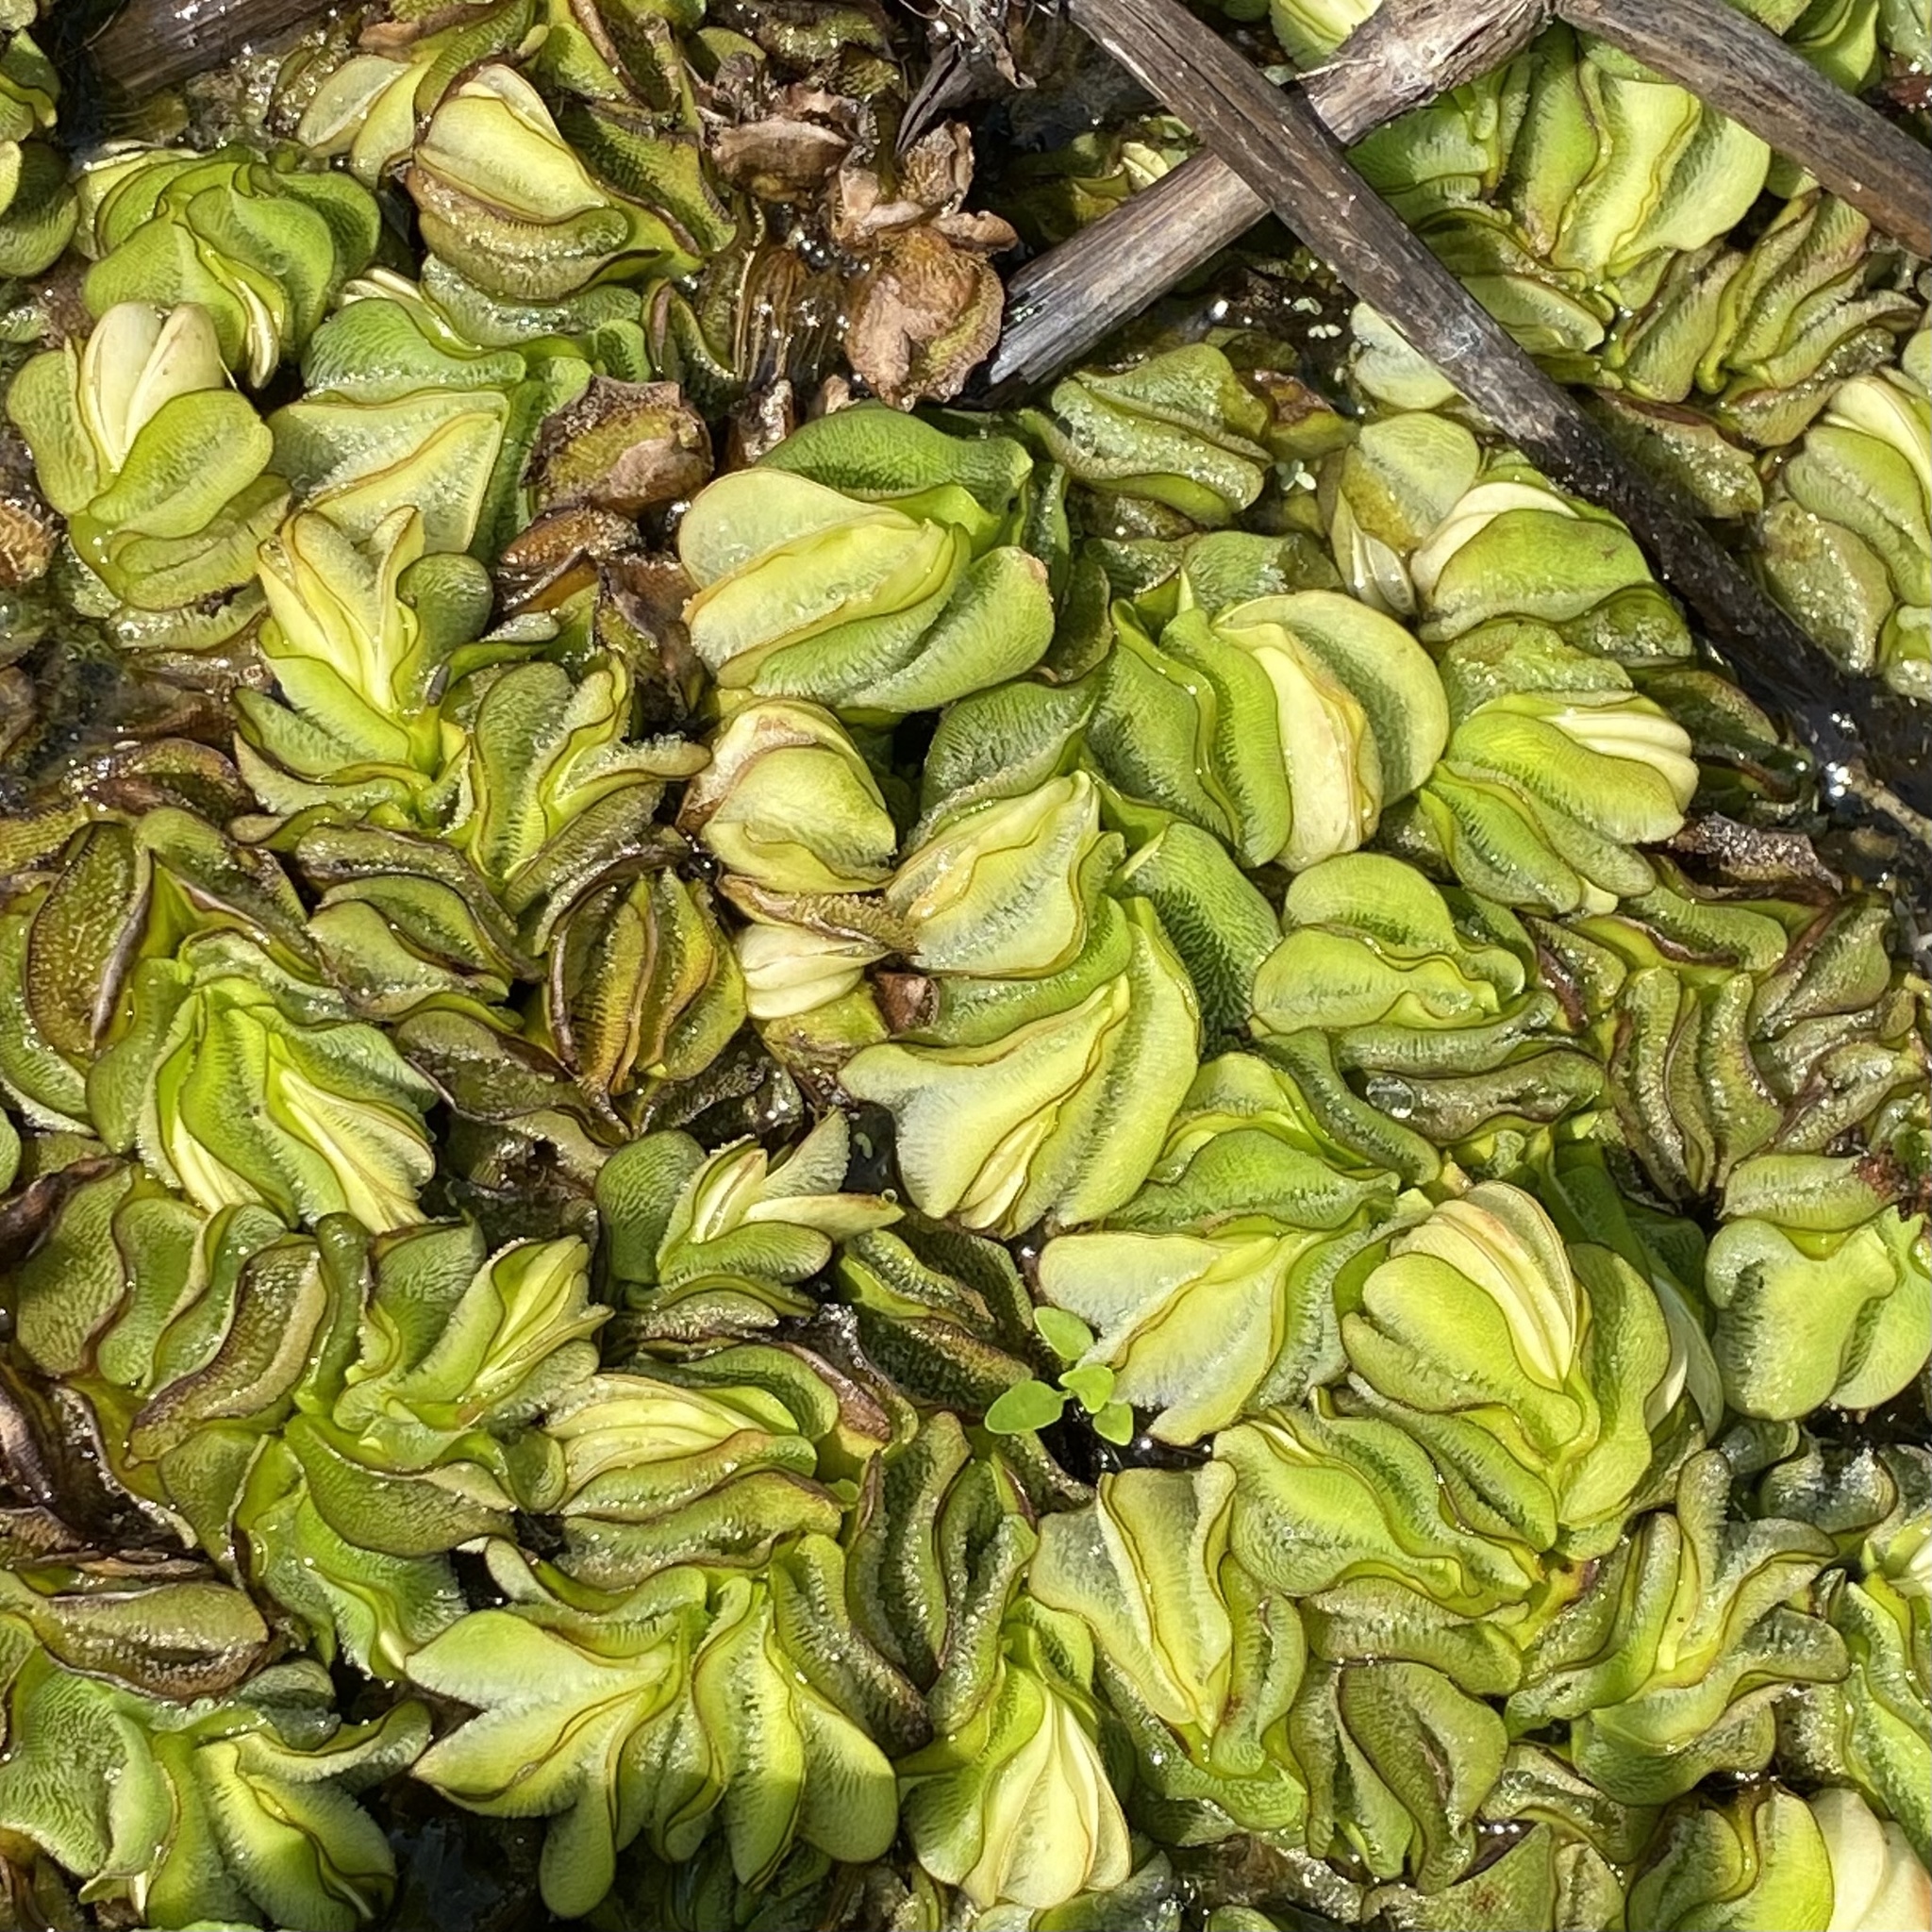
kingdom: Plantae
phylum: Tracheophyta
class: Polypodiopsida
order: Salviniales
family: Salviniaceae
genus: Salvinia
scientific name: Salvinia molesta
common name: Kariba weed
